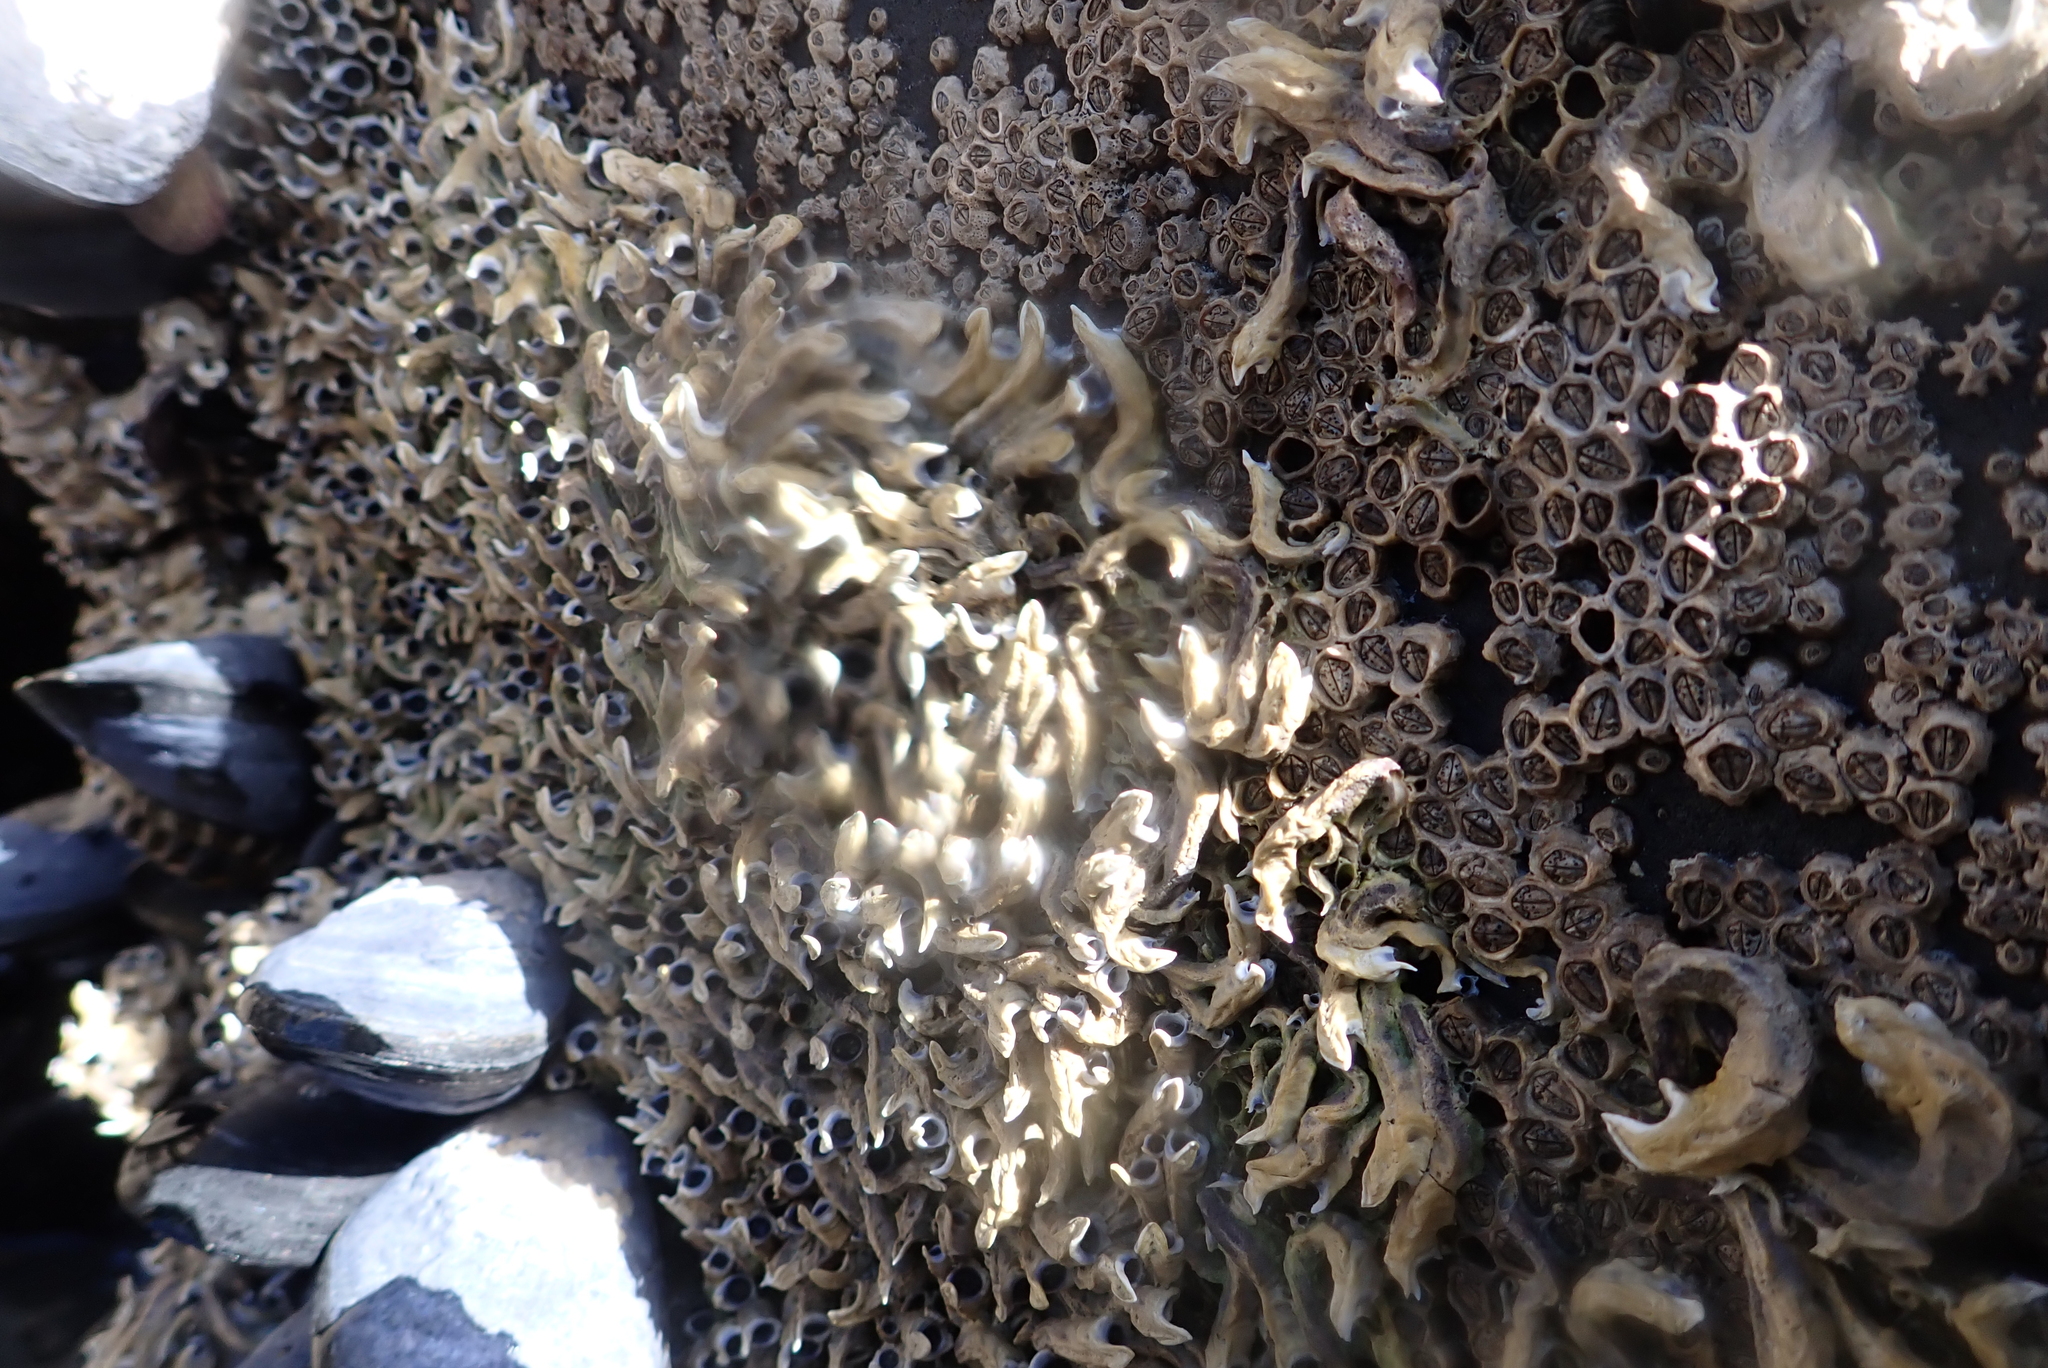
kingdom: Animalia
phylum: Annelida
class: Polychaeta
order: Sabellida
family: Serpulidae
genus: Spirobranchus
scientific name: Spirobranchus cariniferus
